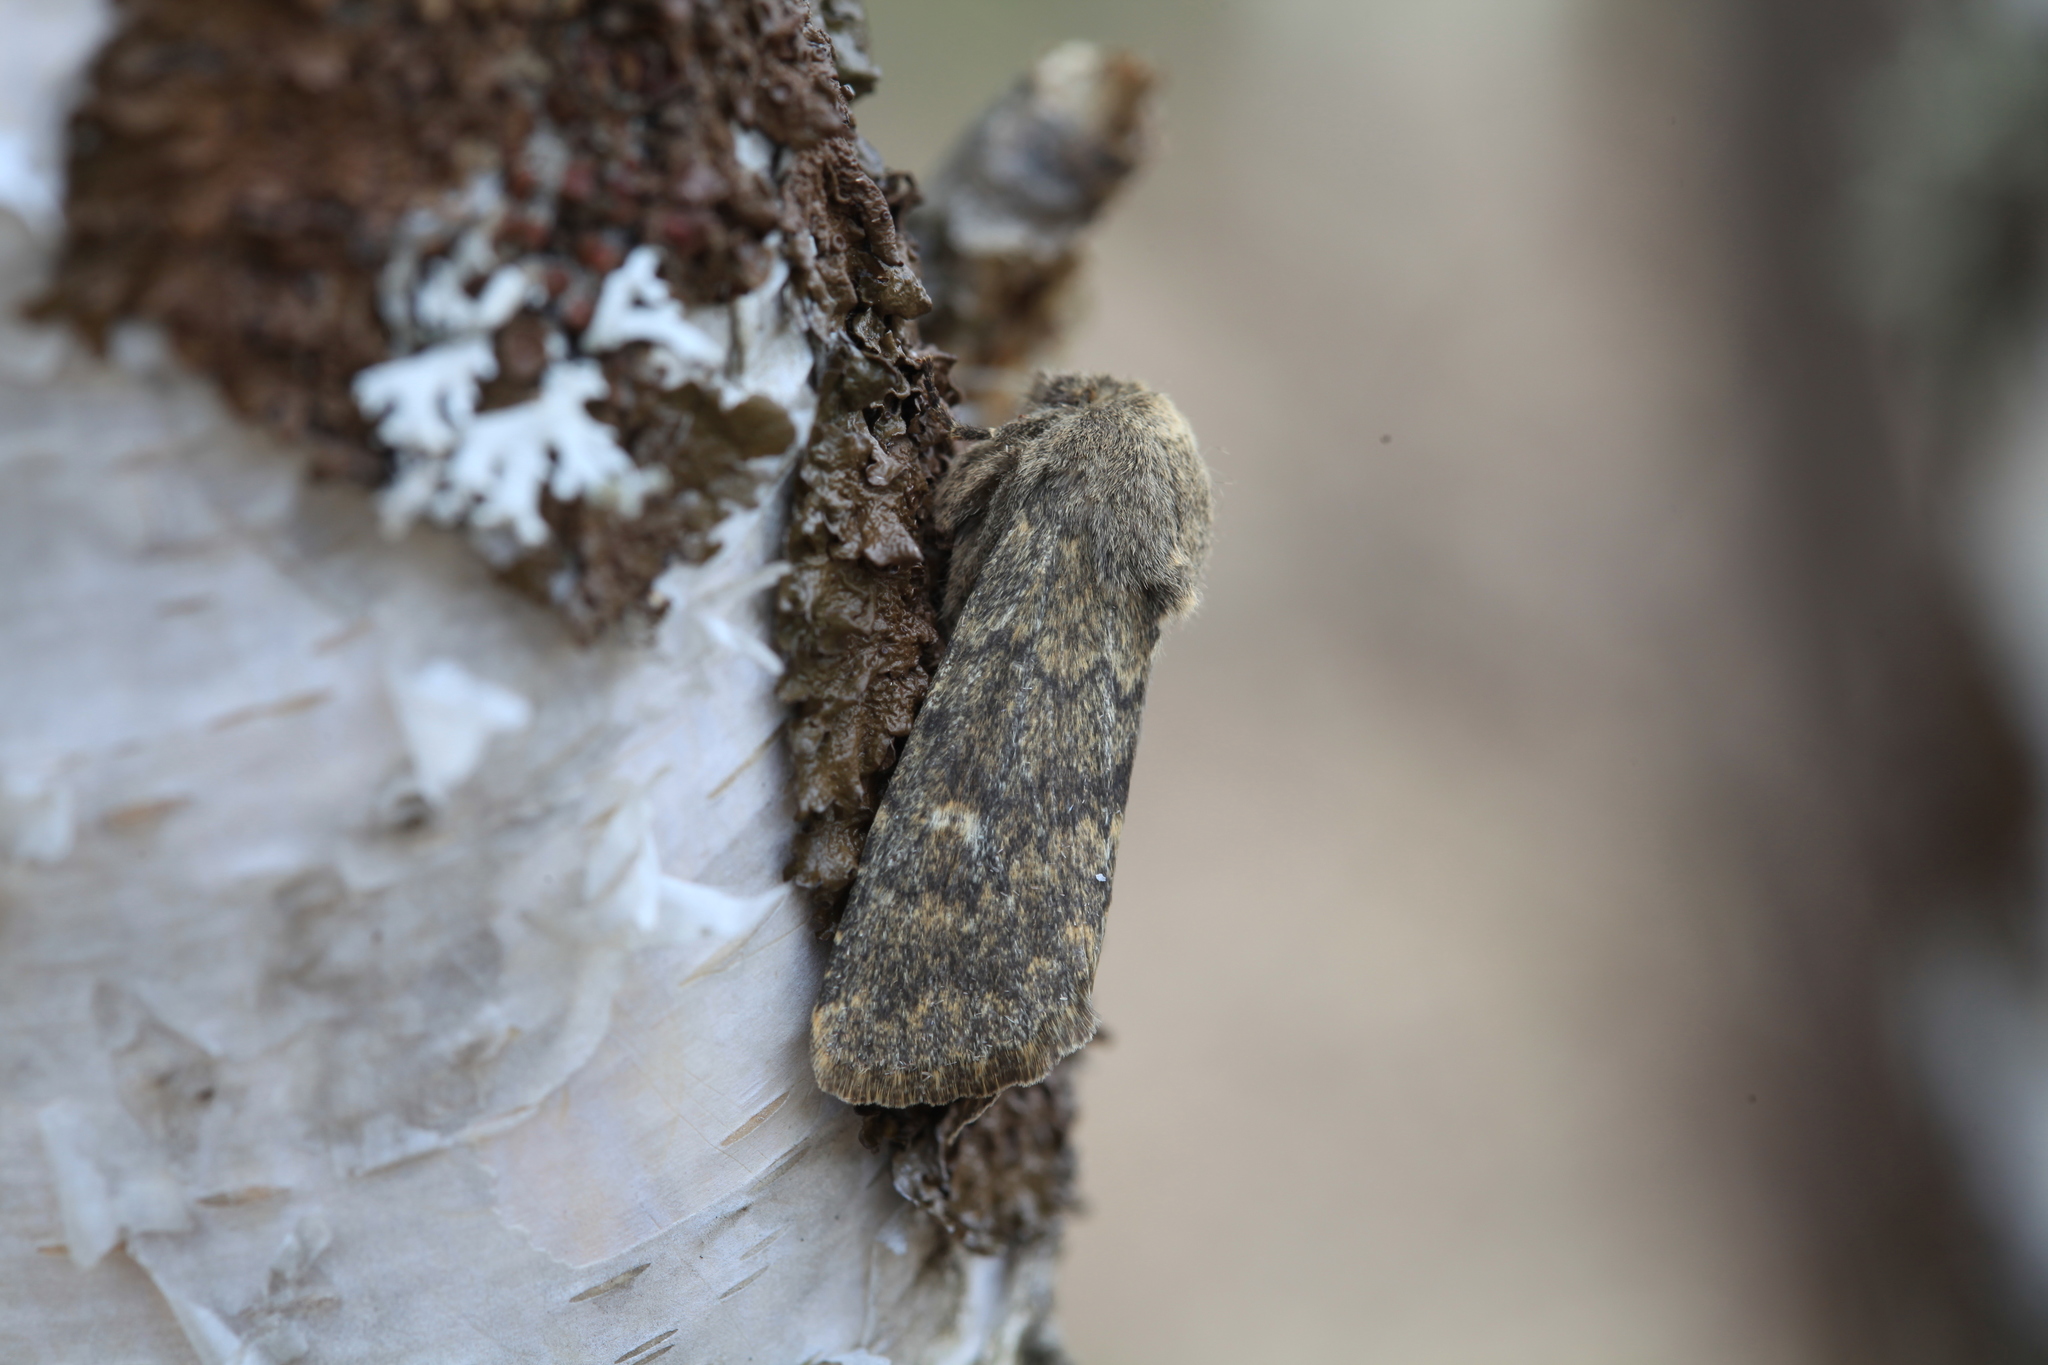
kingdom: Animalia
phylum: Arthropoda
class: Insecta
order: Lepidoptera
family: Noctuidae
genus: Dasypolia
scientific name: Dasypolia templi
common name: Brindled ochre
